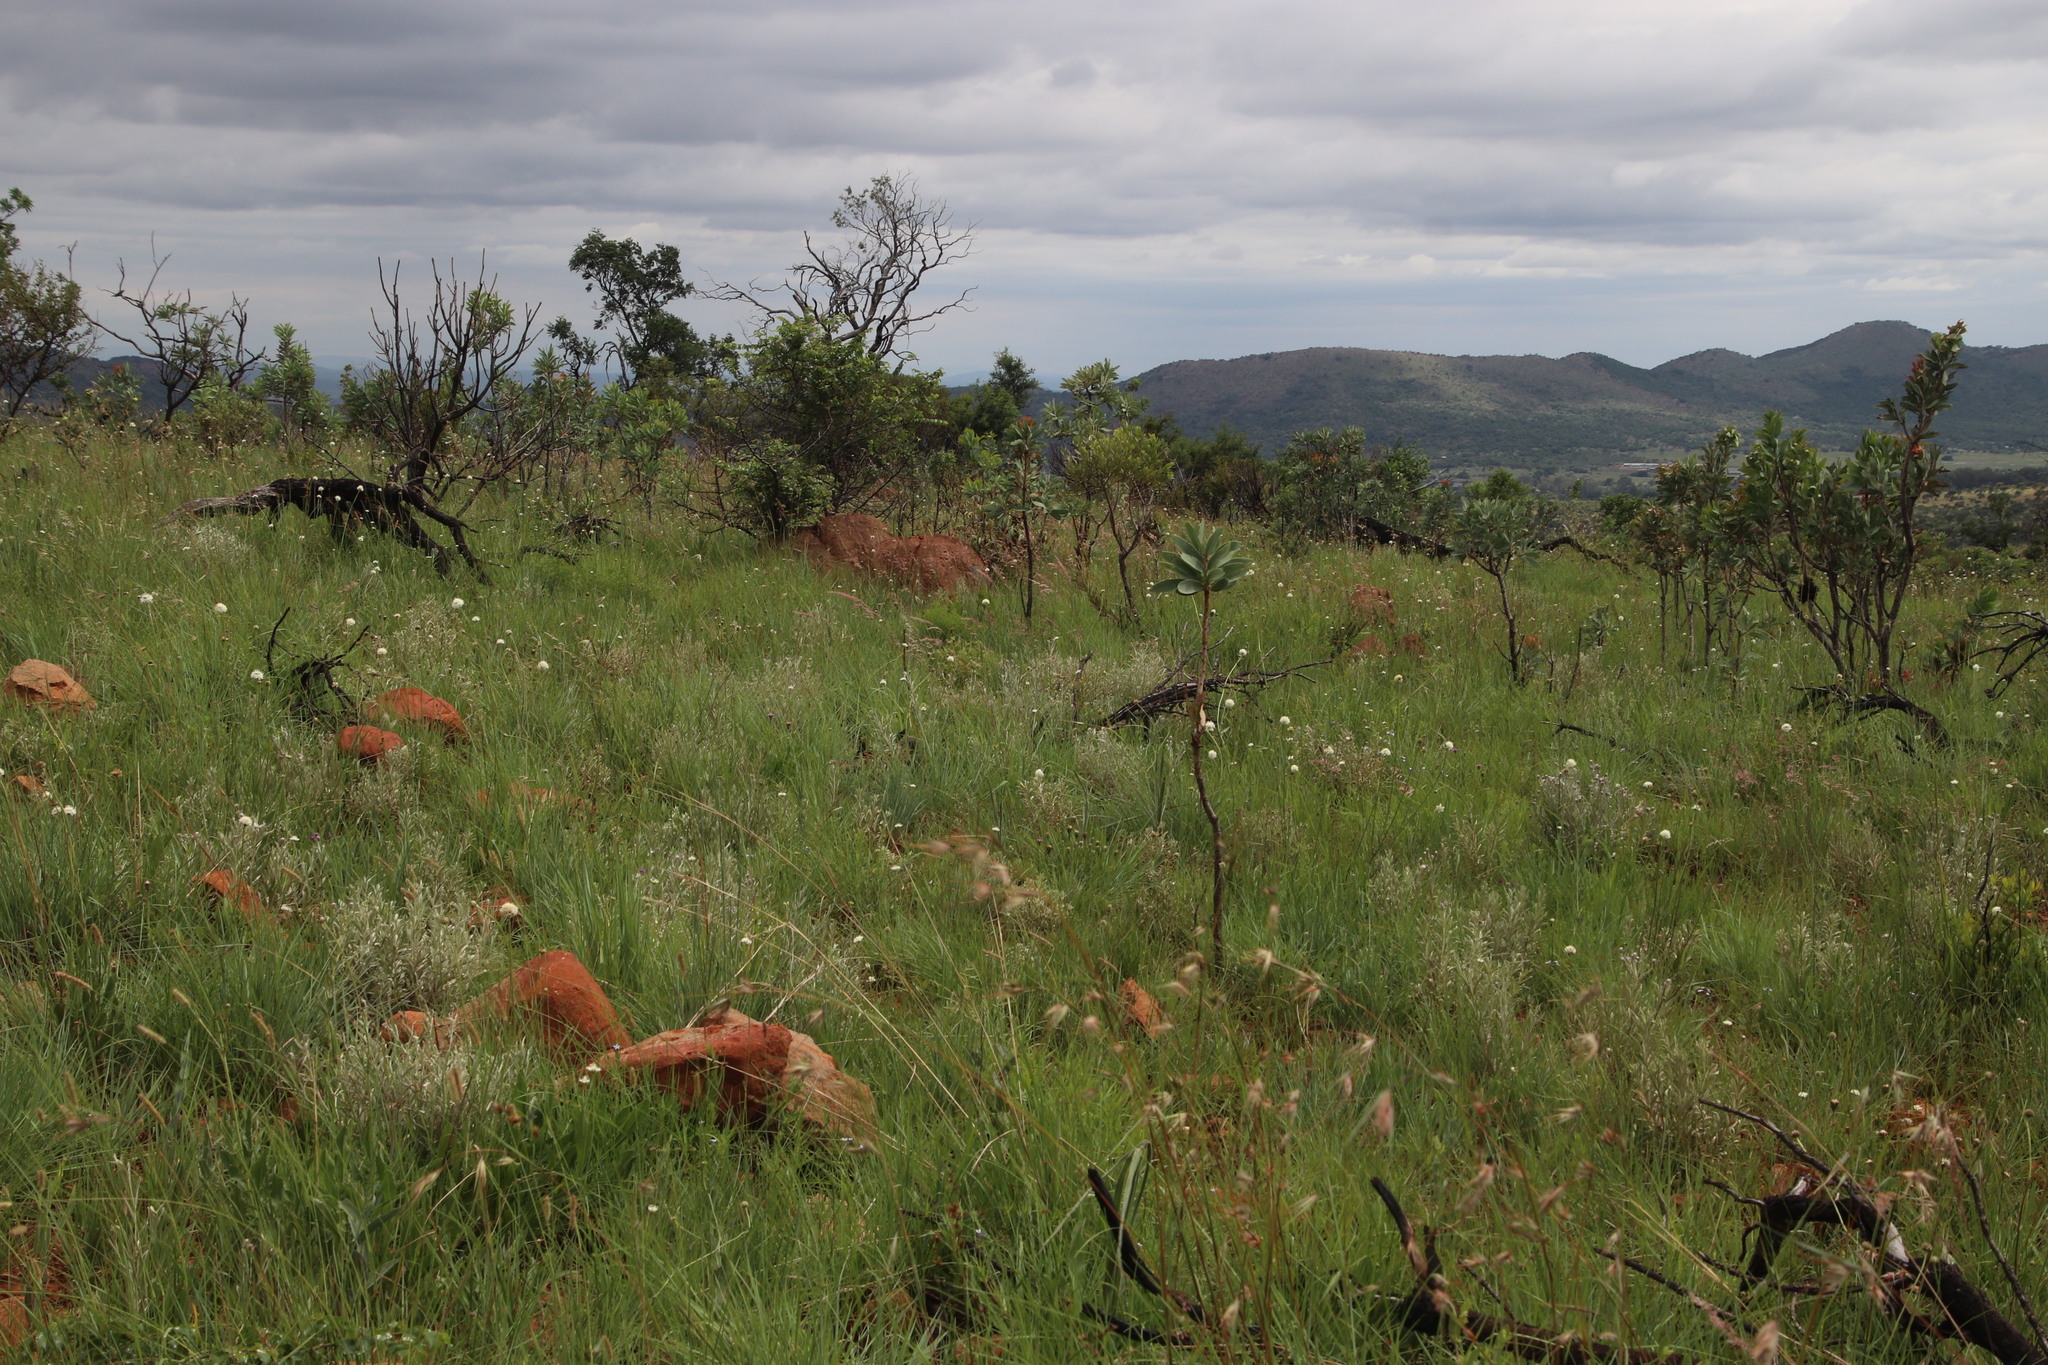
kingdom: Plantae
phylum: Tracheophyta
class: Magnoliopsida
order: Dipsacales
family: Caprifoliaceae
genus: Cephalaria
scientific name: Cephalaria zeyheriana
